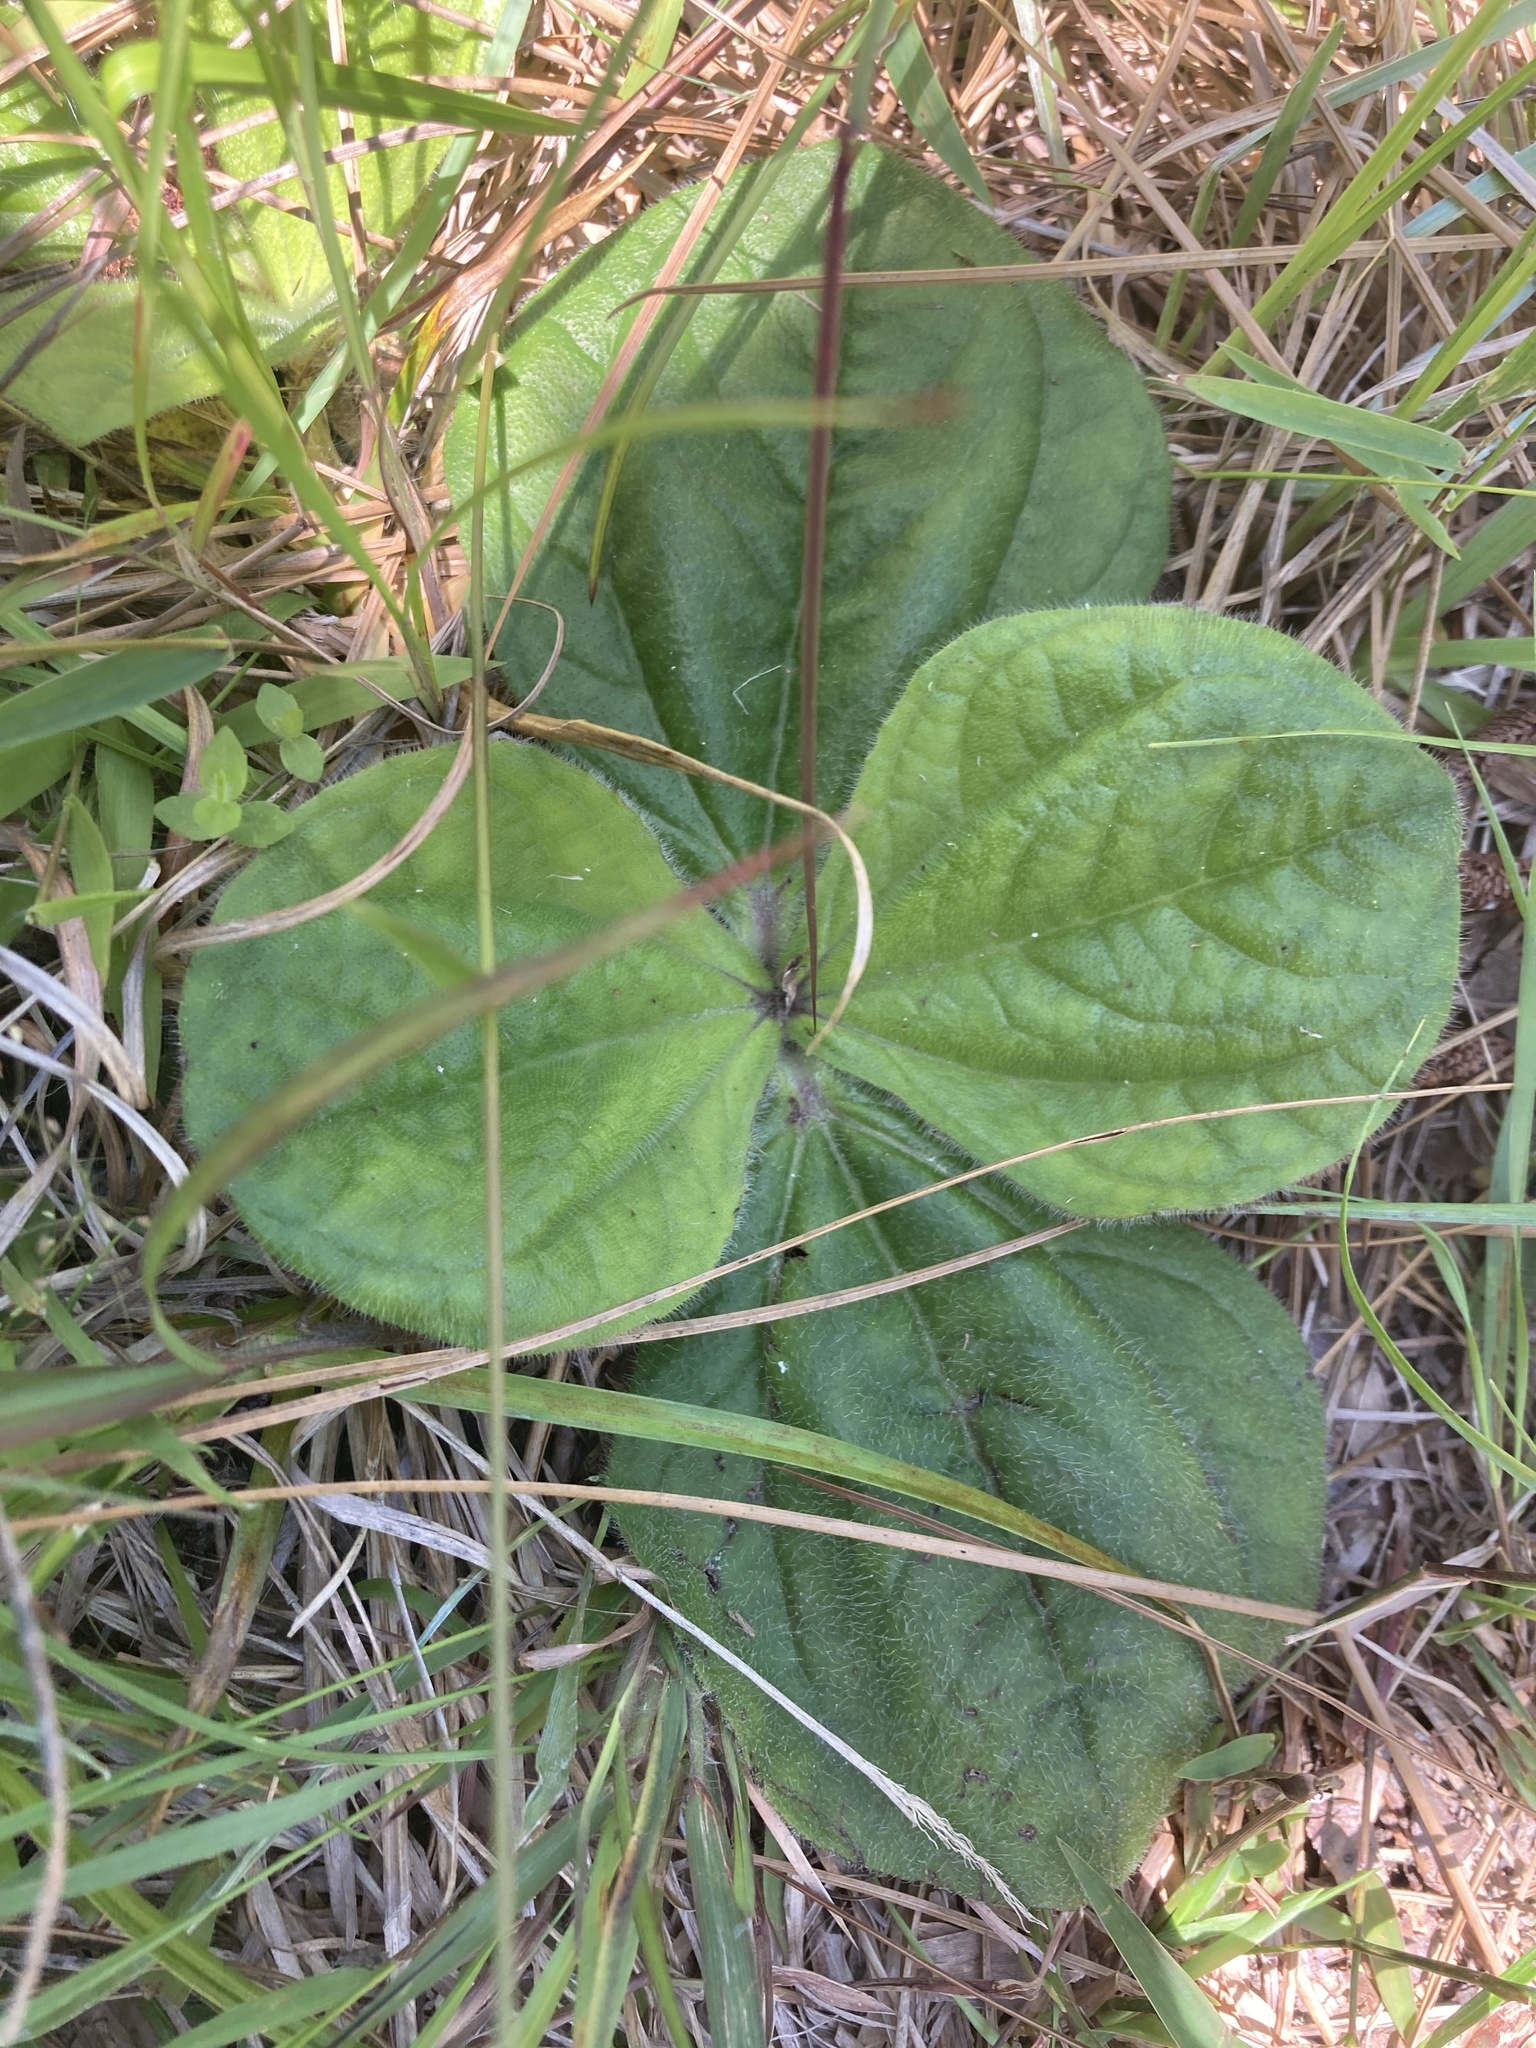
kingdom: Plantae
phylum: Tracheophyta
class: Magnoliopsida
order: Asterales
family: Asteraceae
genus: Helianthus
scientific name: Helianthus radula
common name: Pineland sunflower
